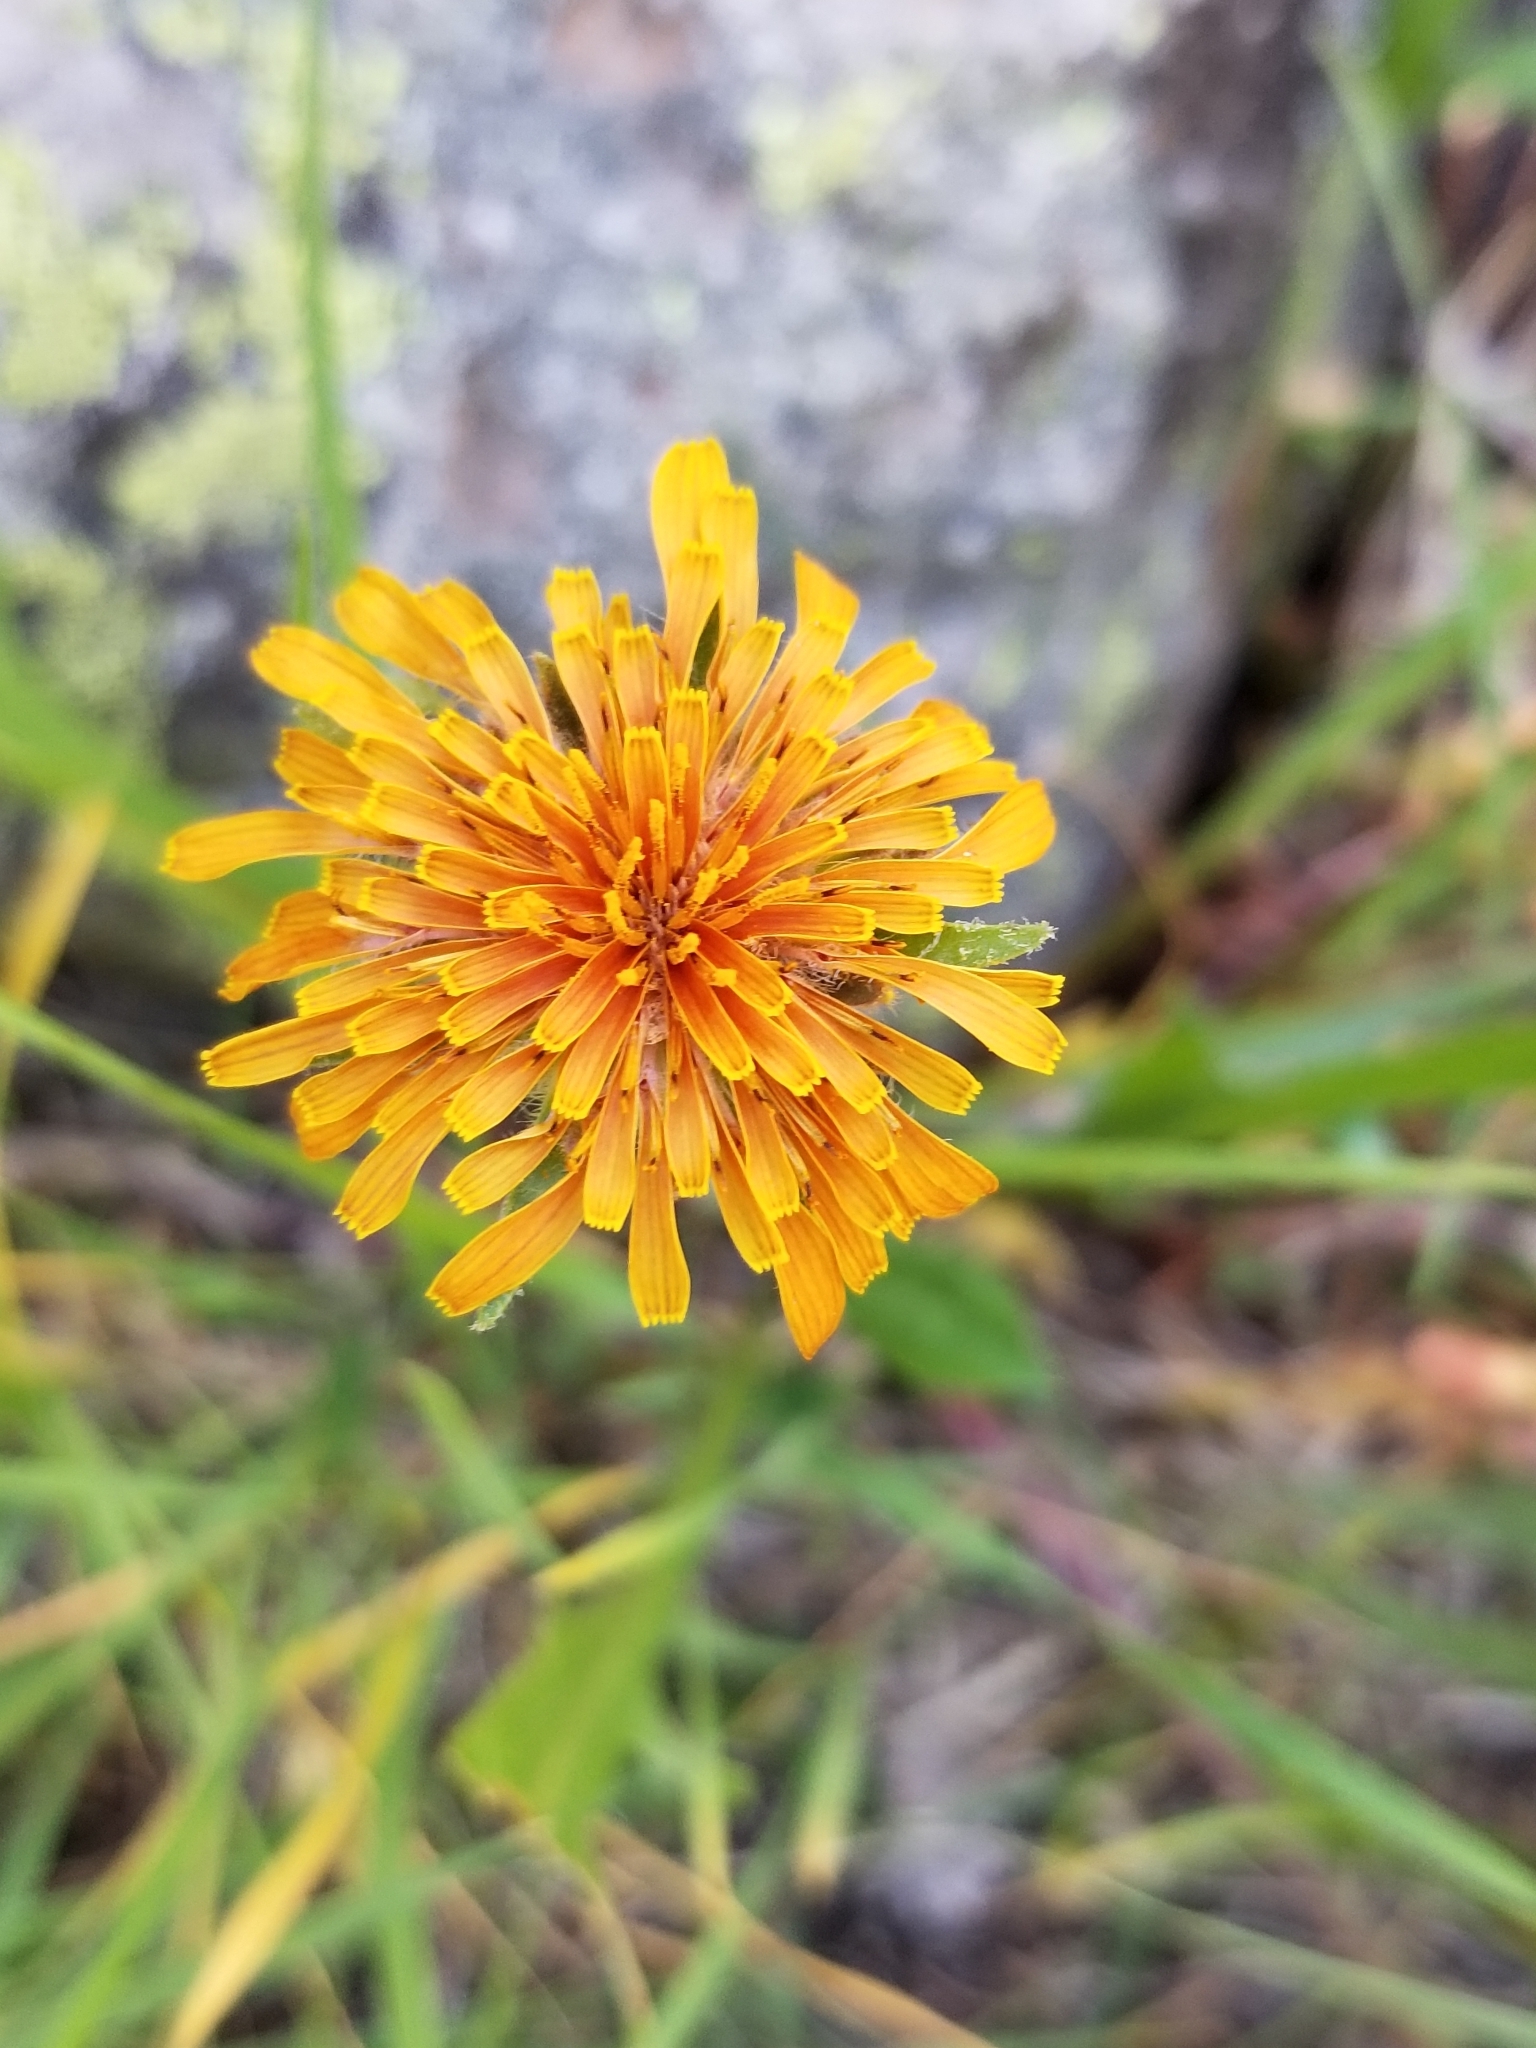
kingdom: Plantae
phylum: Tracheophyta
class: Magnoliopsida
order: Asterales
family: Asteraceae
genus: Agoseris
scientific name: Agoseris aurantiaca
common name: Mountain agoseris
